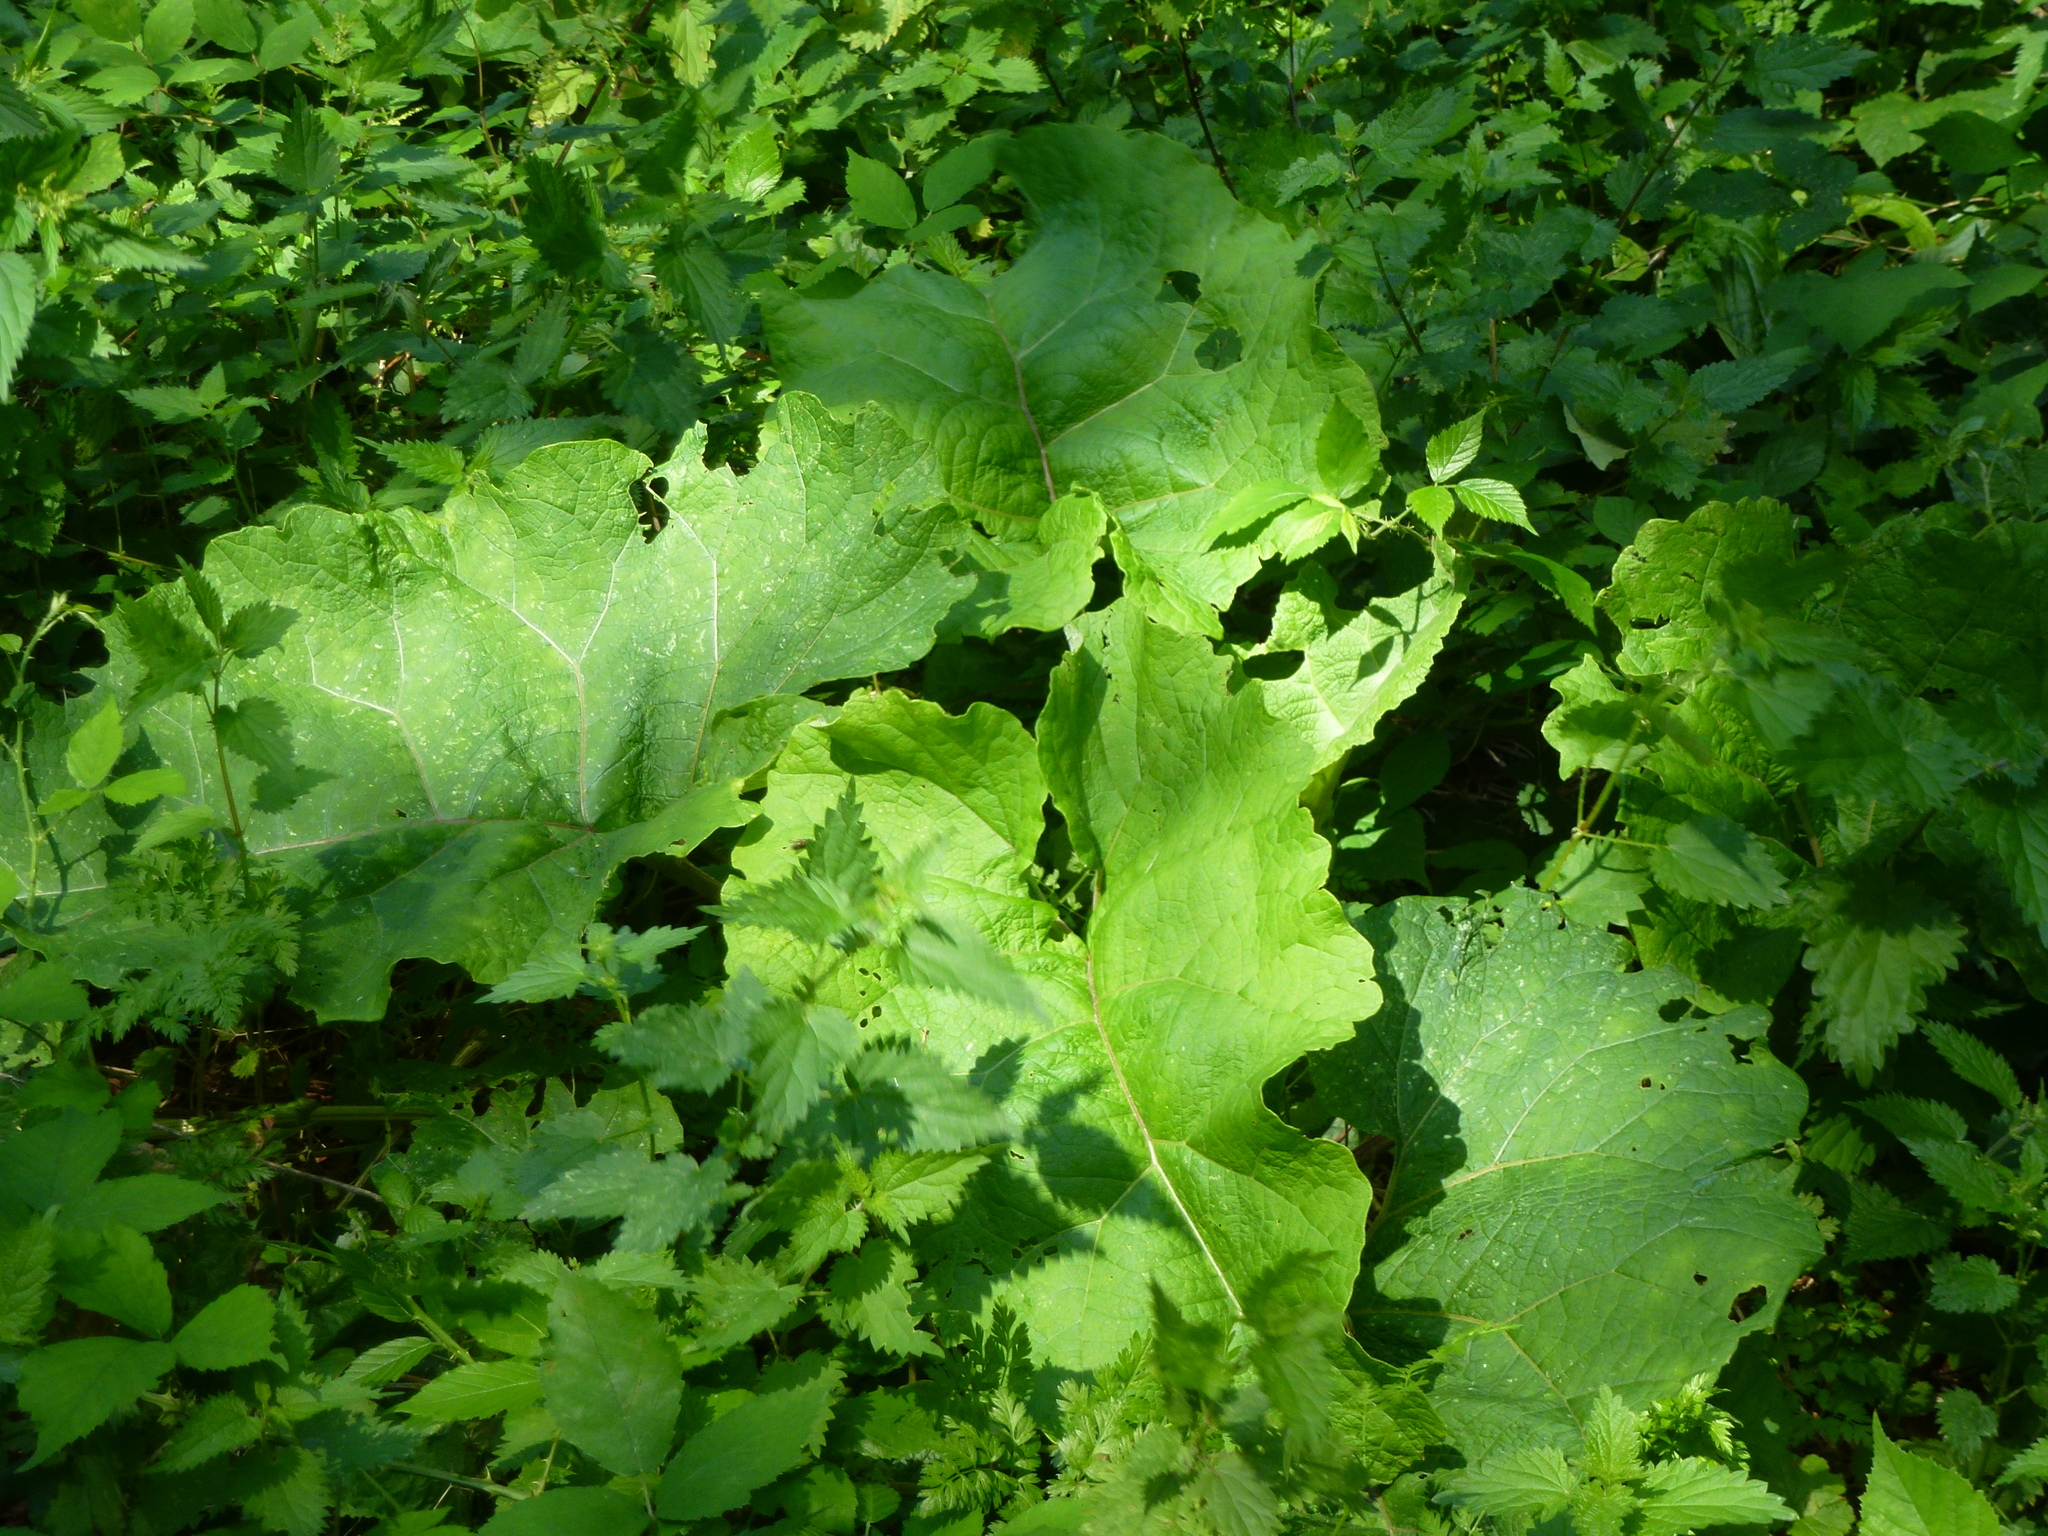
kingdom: Plantae
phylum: Tracheophyta
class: Magnoliopsida
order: Asterales
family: Asteraceae
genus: Arctium
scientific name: Arctium minus
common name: Lesser burdock
